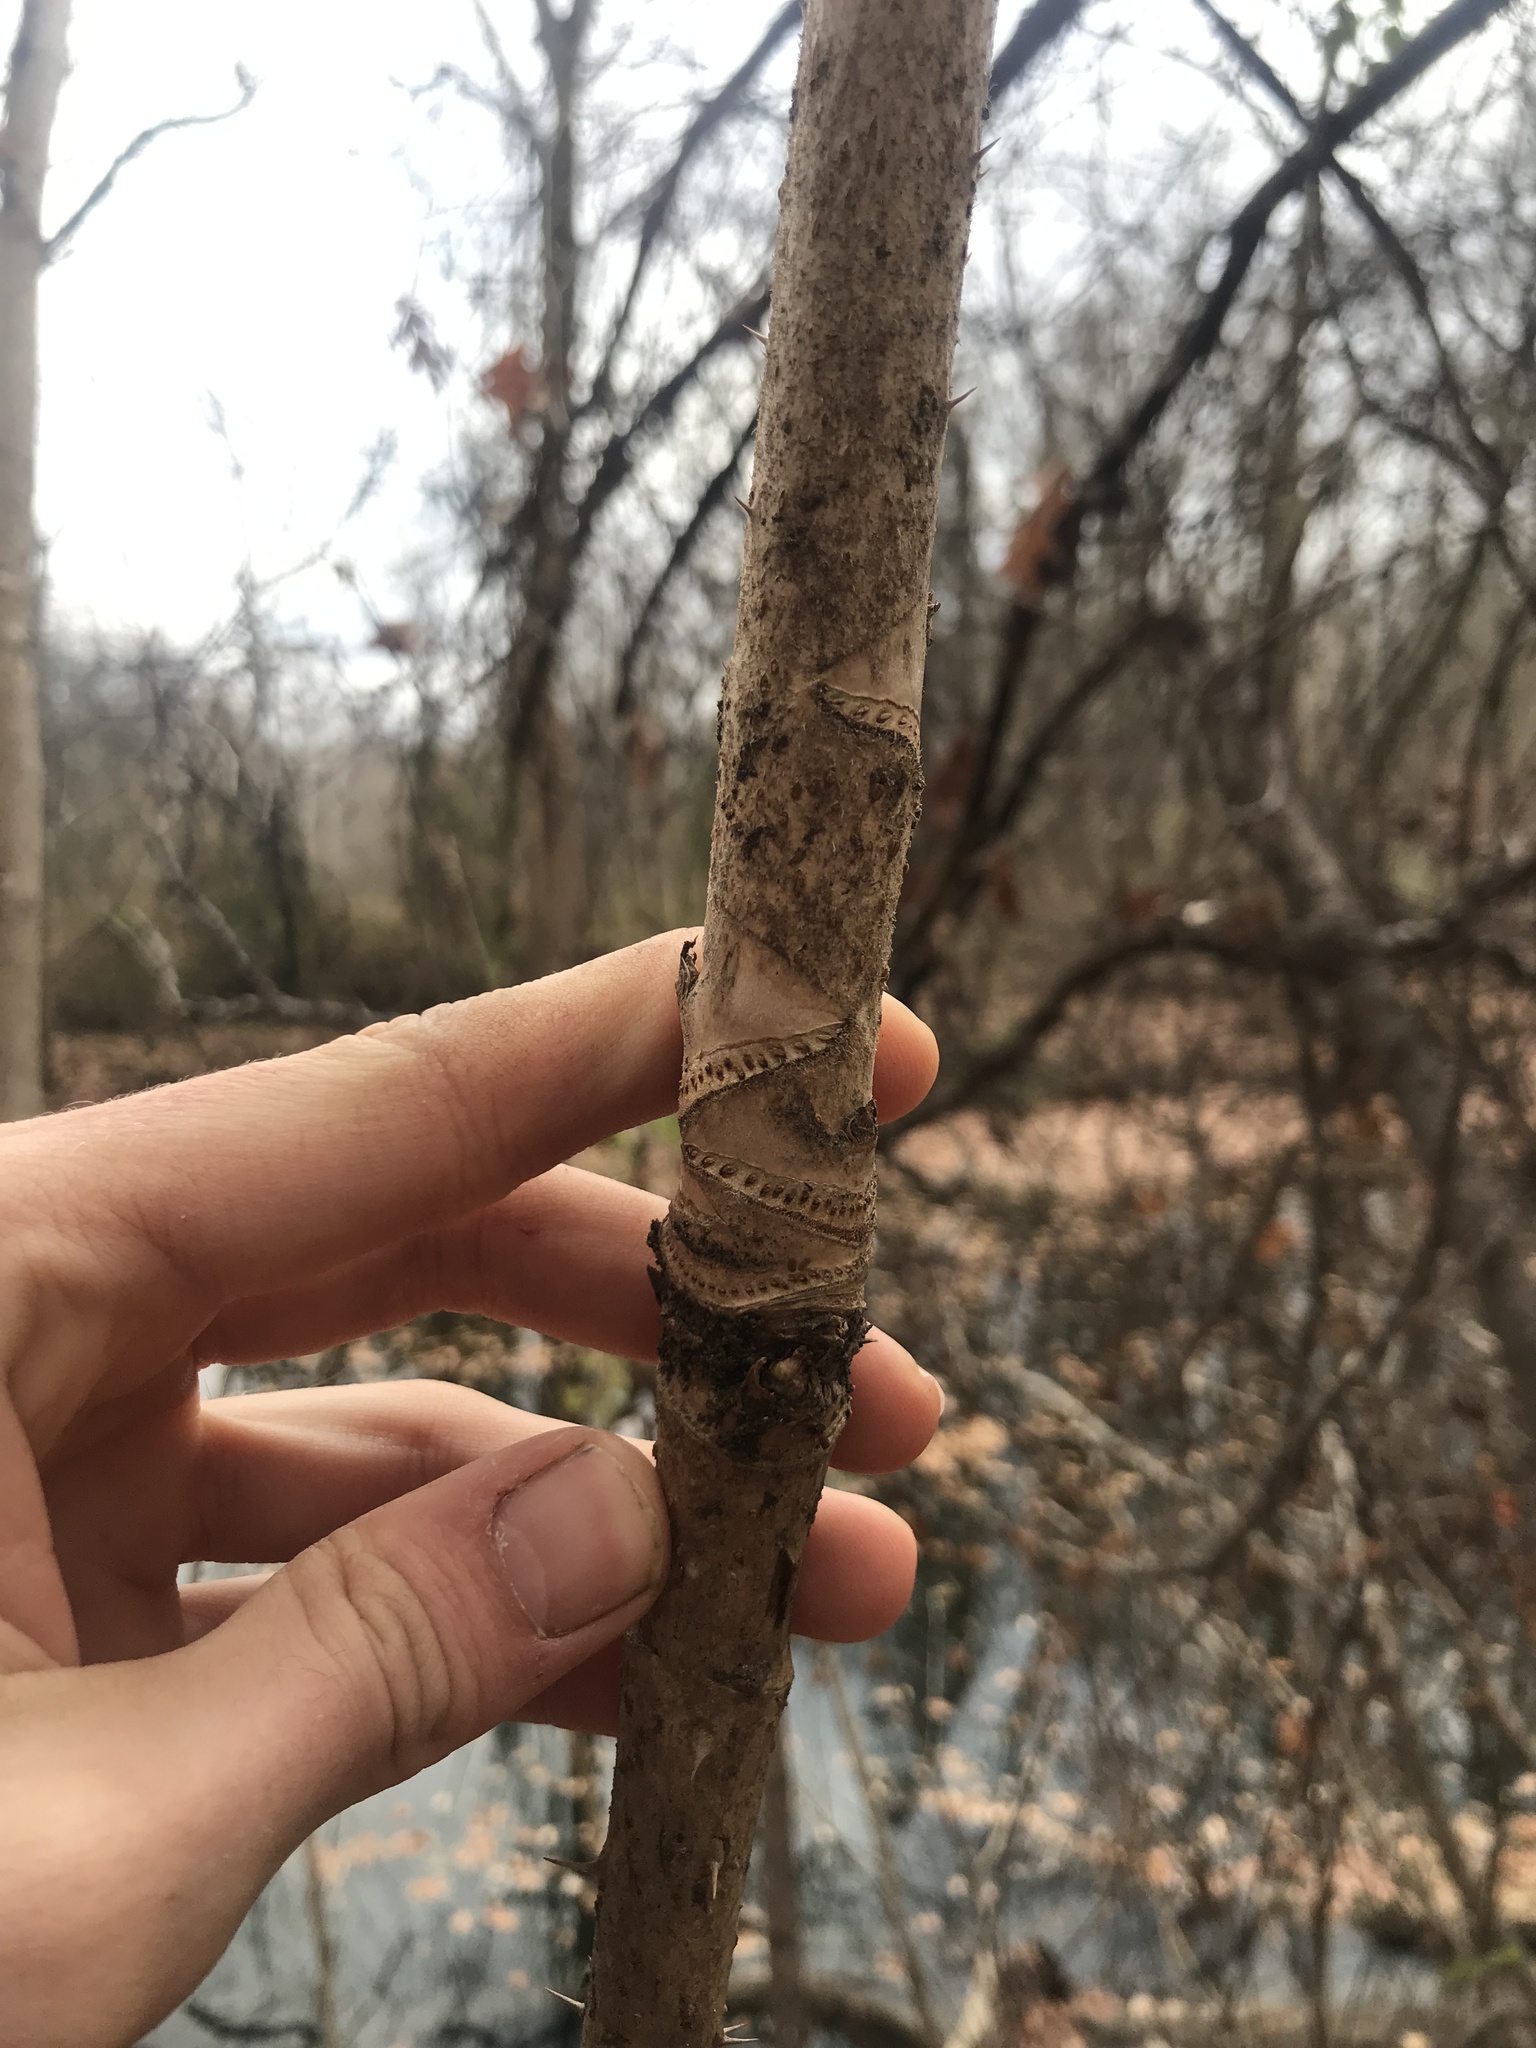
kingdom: Plantae
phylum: Tracheophyta
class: Magnoliopsida
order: Apiales
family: Araliaceae
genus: Aralia
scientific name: Aralia elata
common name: Japanese angelica-tree
